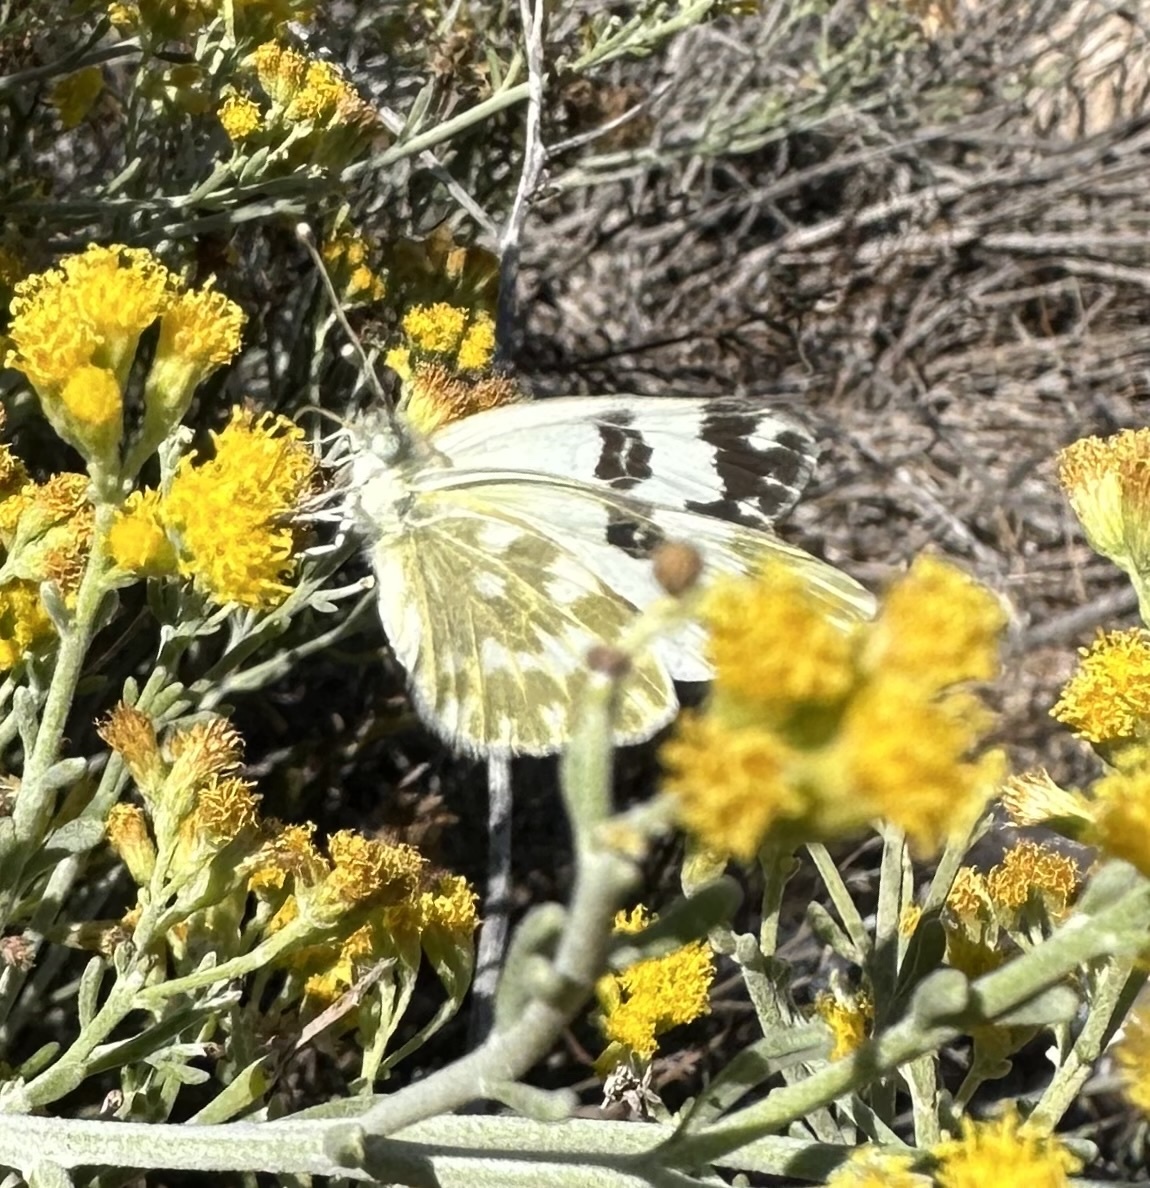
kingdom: Animalia
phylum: Arthropoda
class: Insecta
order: Lepidoptera
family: Pieridae
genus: Pontia
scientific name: Pontia daplidice
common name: Bath white
